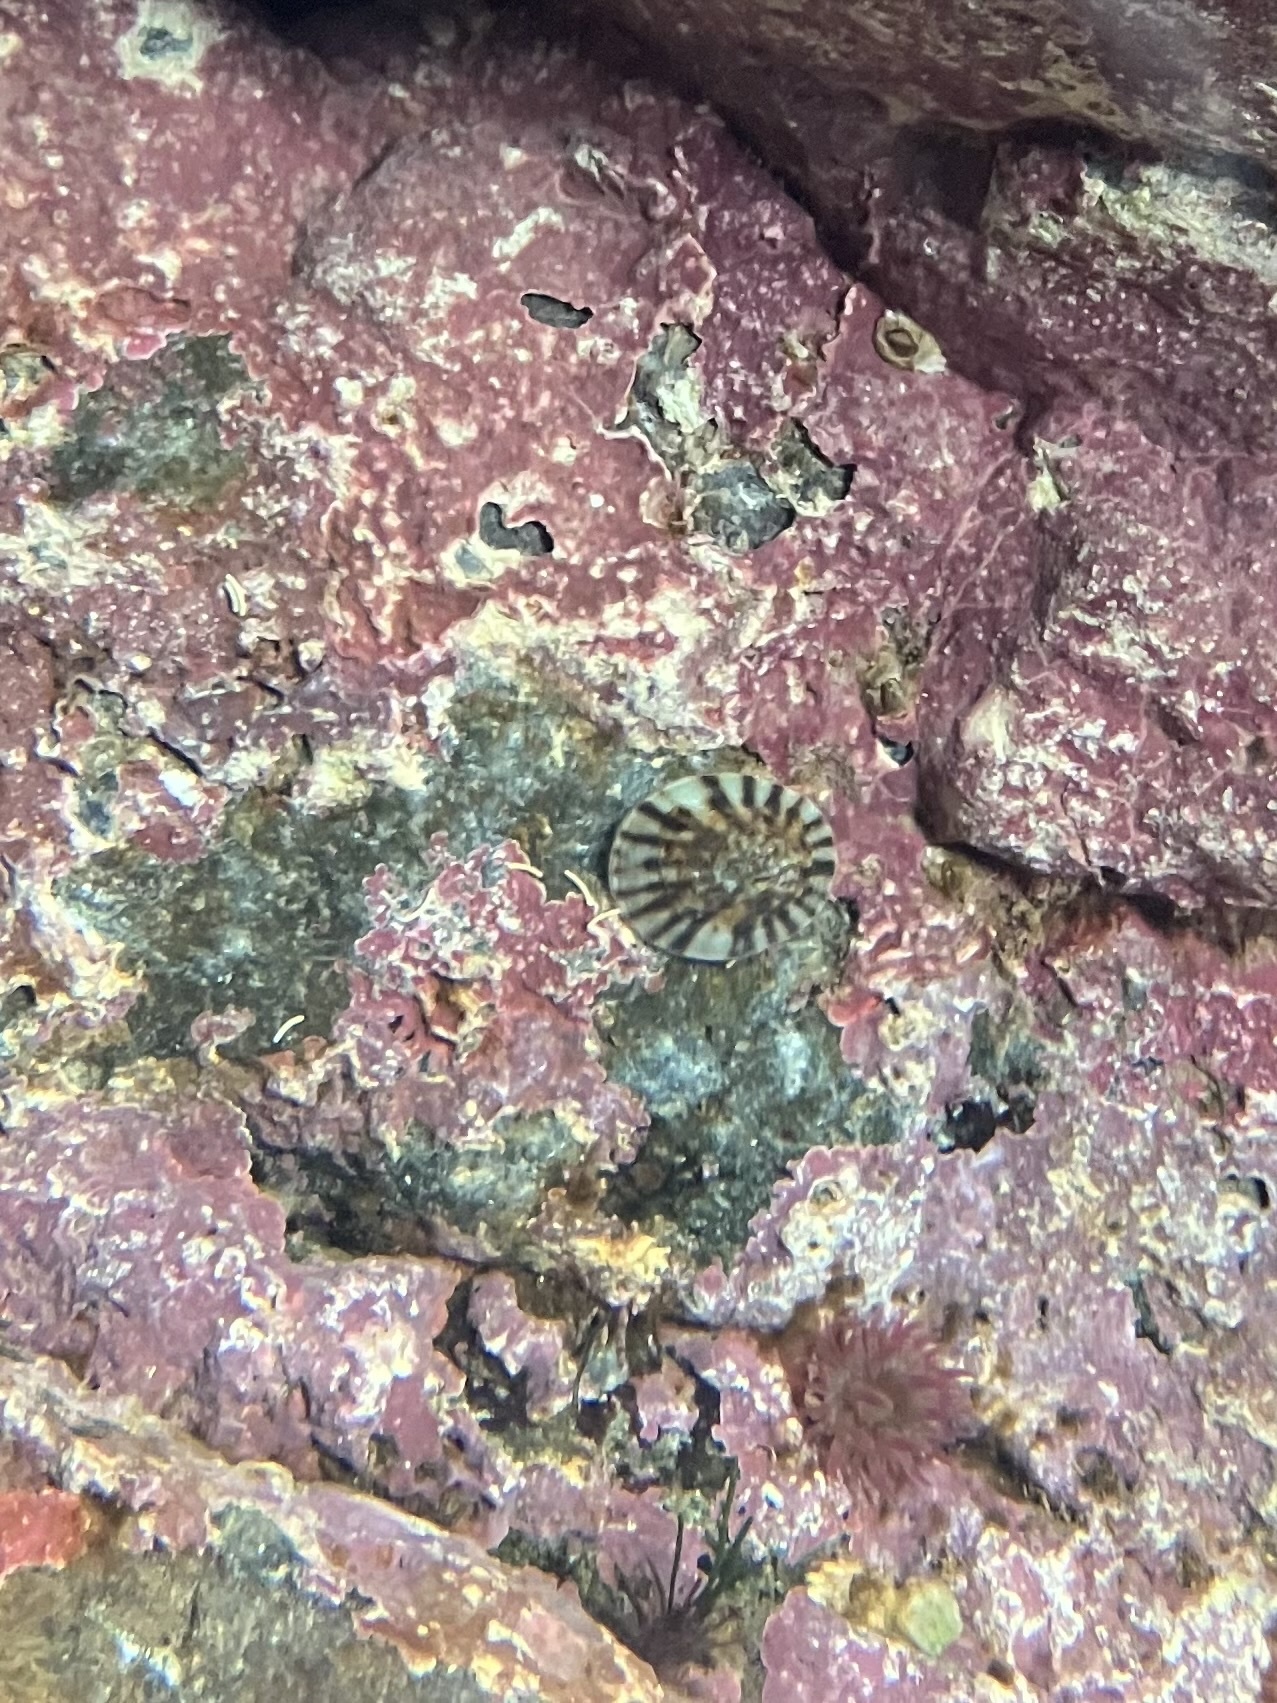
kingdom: Animalia
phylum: Mollusca
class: Gastropoda
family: Lottiidae
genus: Testudinalia
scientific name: Testudinalia testudinalis
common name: Common tortoiseshell limpet
